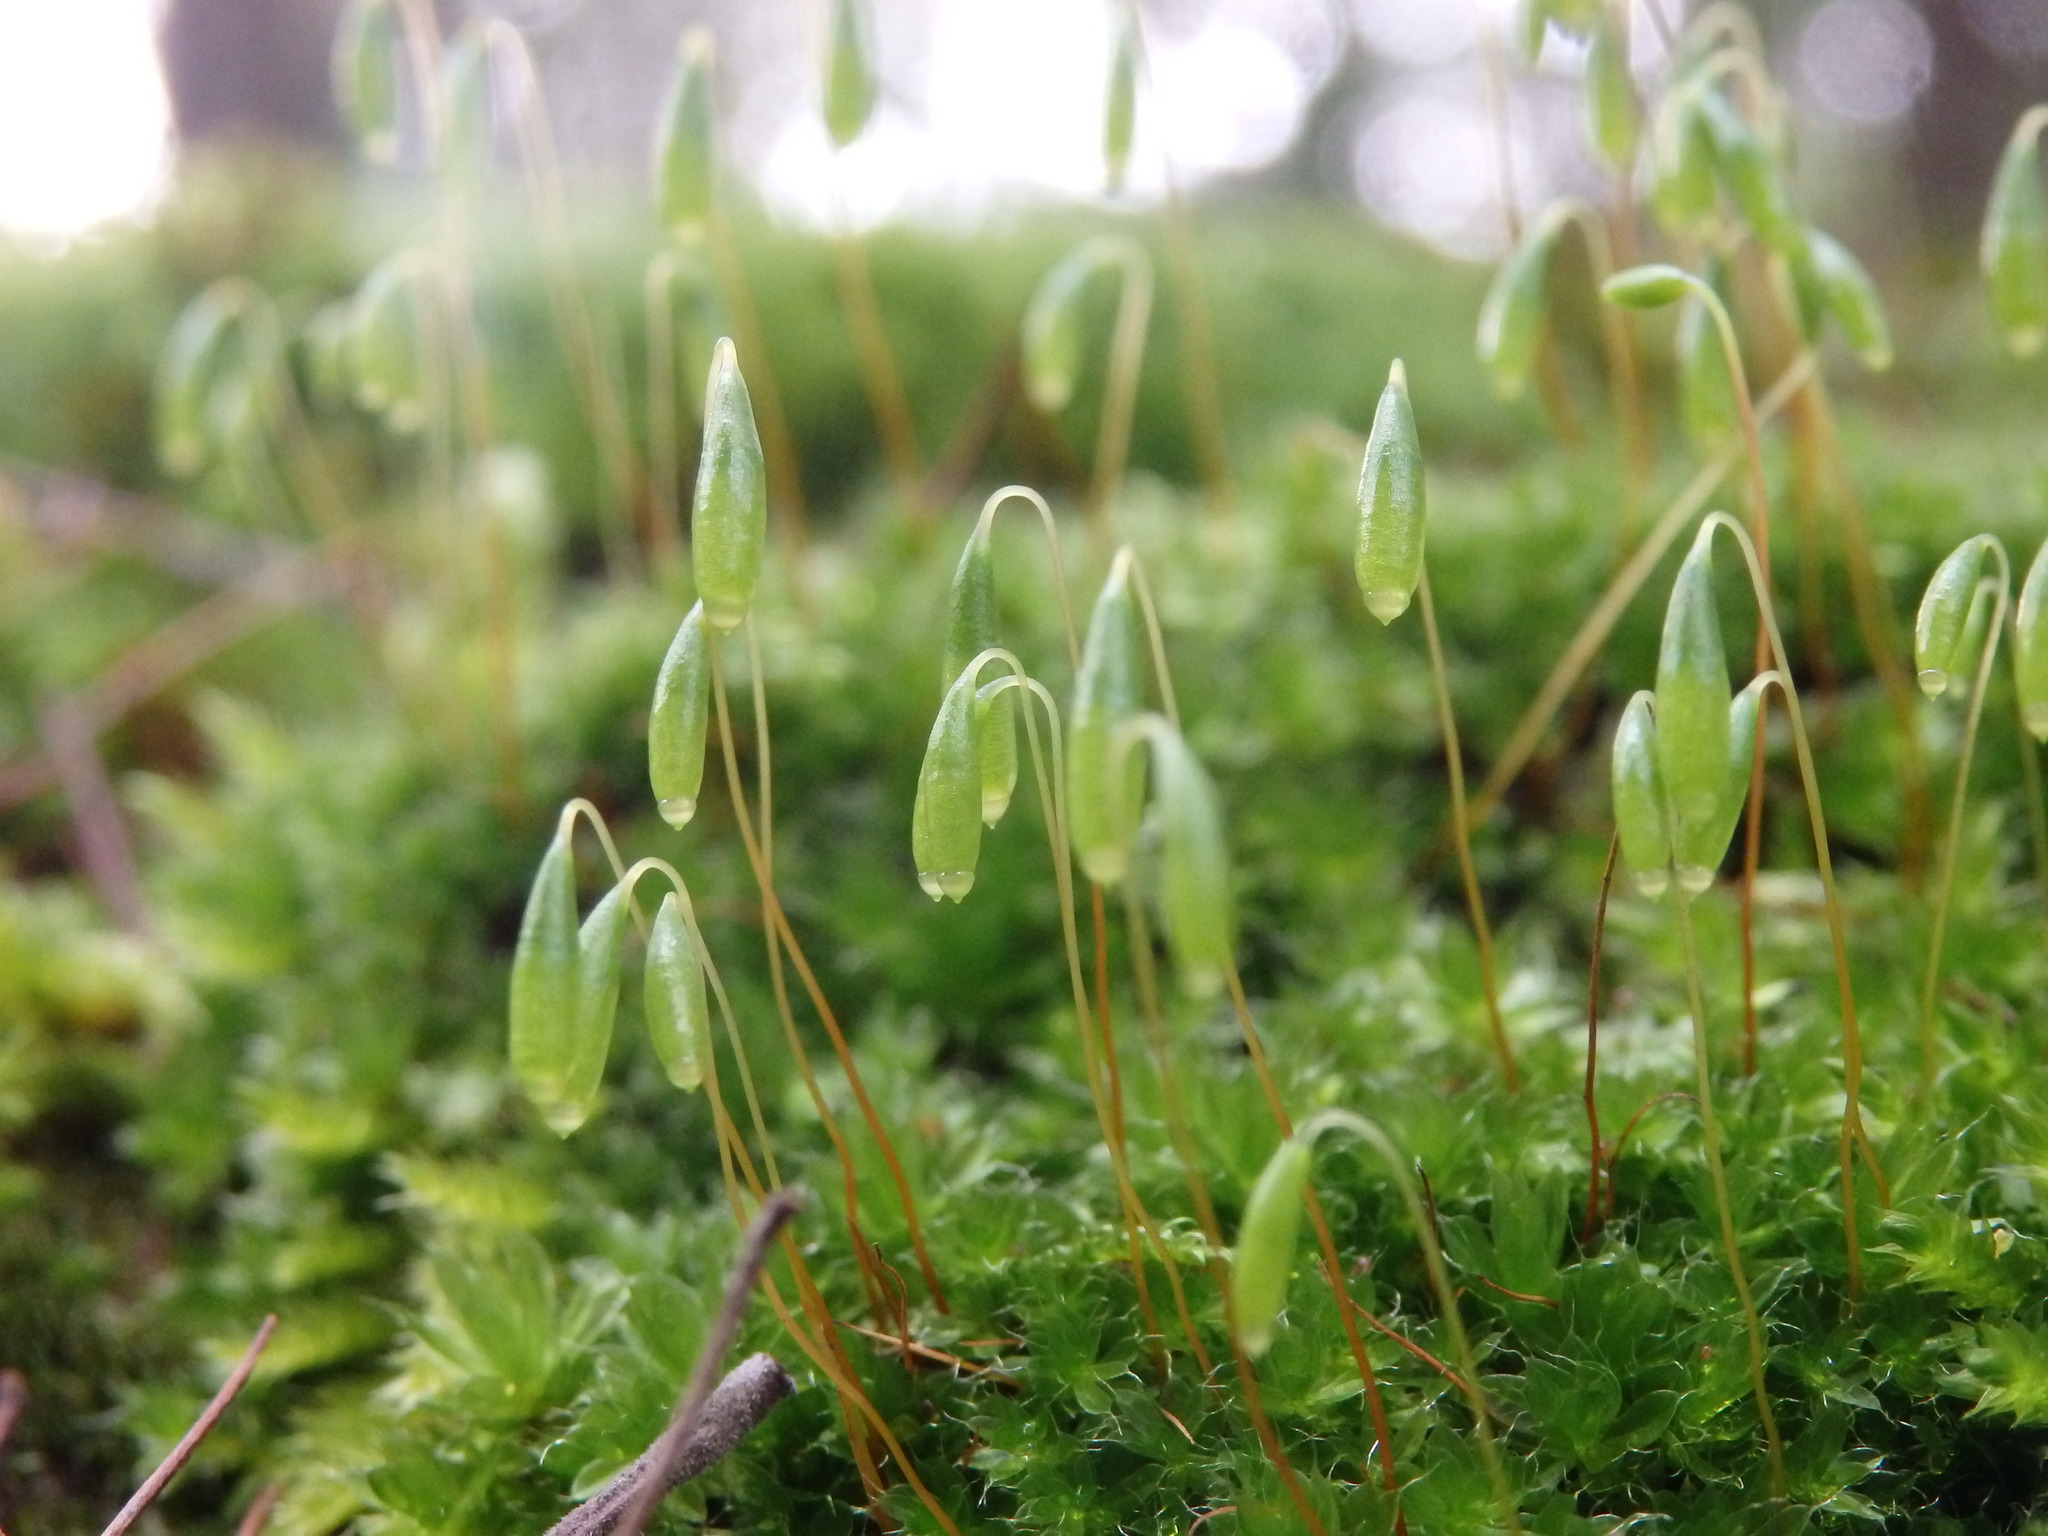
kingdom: Plantae
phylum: Bryophyta
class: Bryopsida
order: Bryales
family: Bryaceae
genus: Rosulabryum
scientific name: Rosulabryum capillare
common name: Capillary thread-moss
